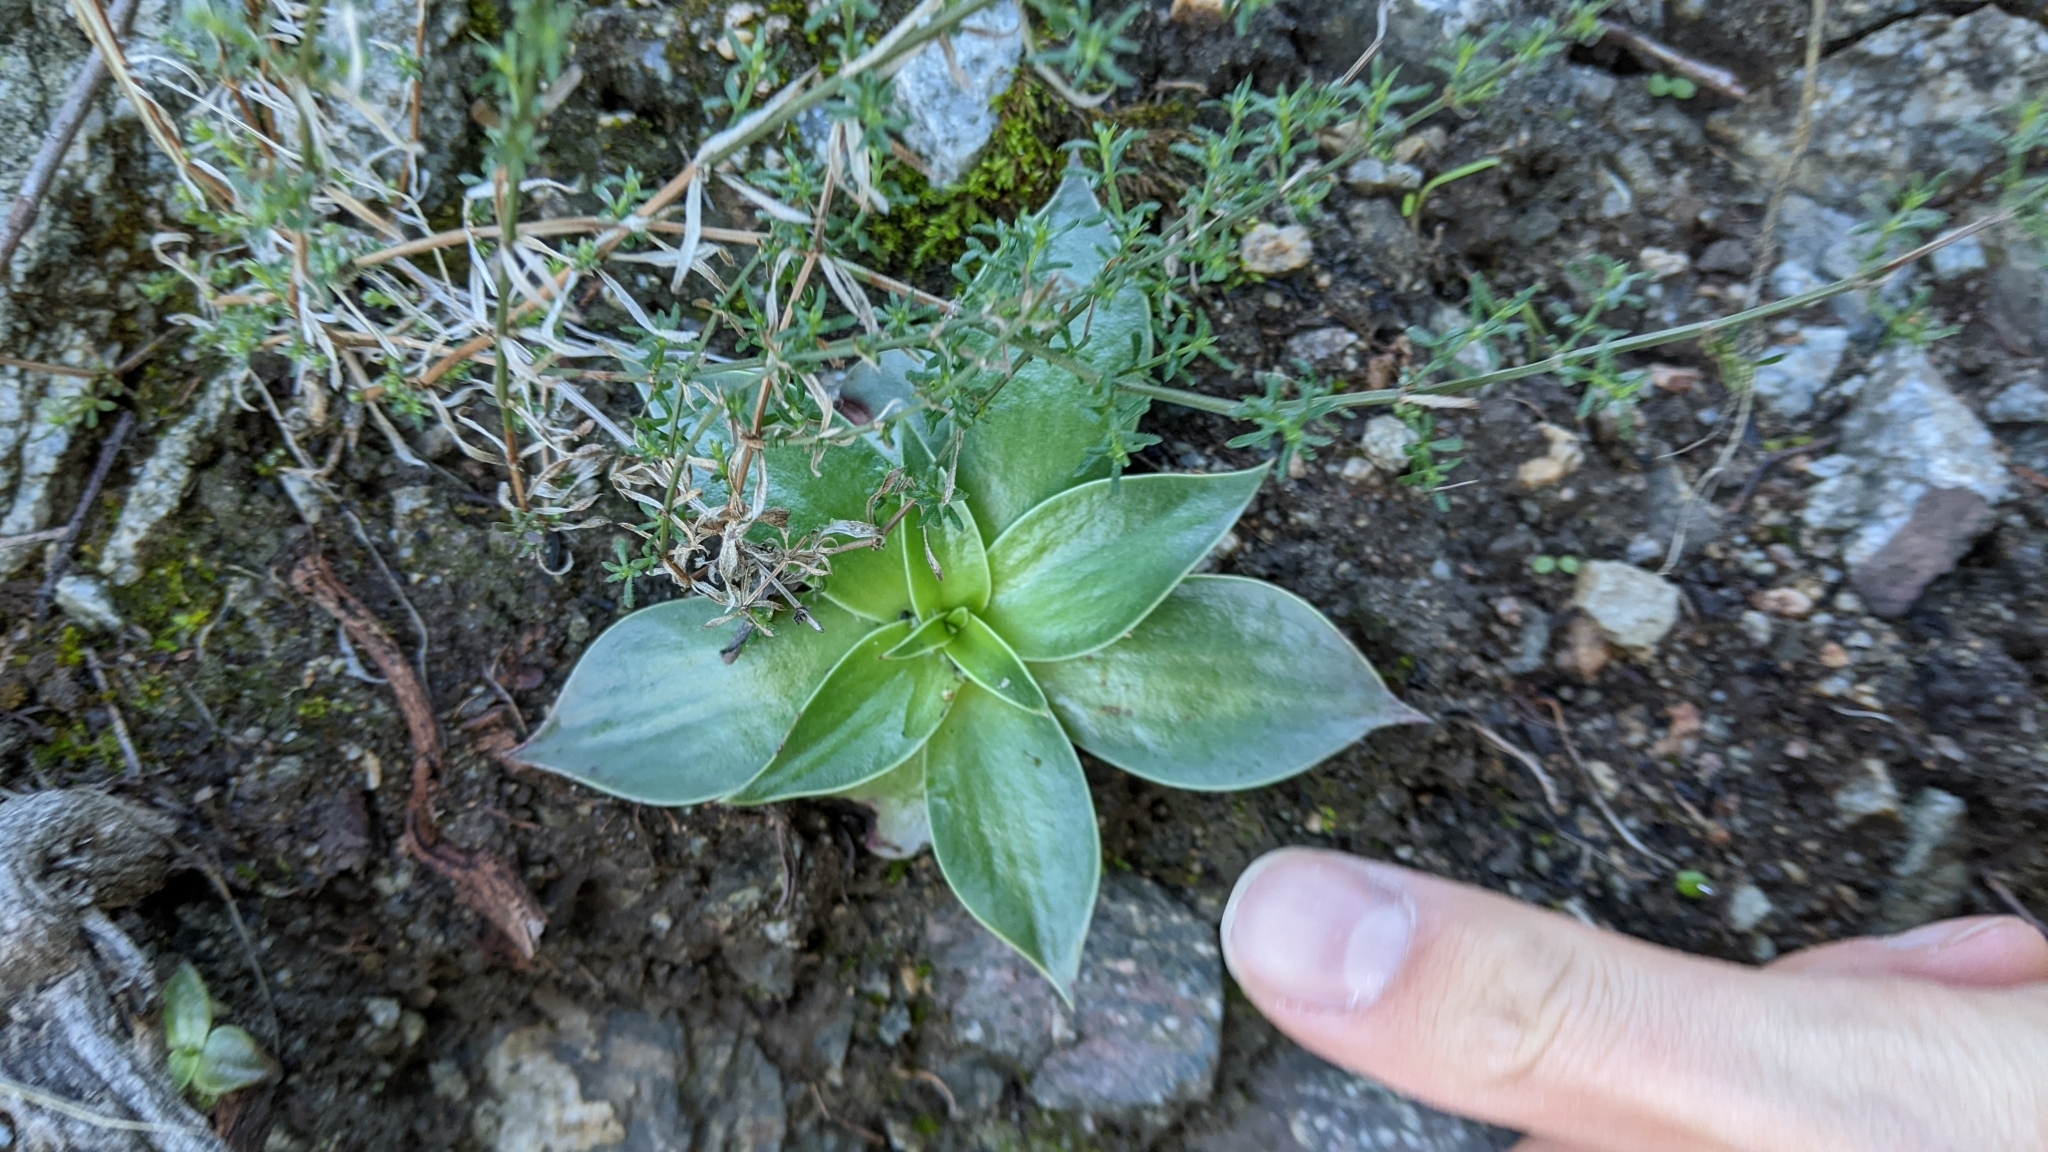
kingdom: Plantae
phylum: Tracheophyta
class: Magnoliopsida
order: Saxifragales
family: Crassulaceae
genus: Dudleya
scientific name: Dudleya lanceolata
